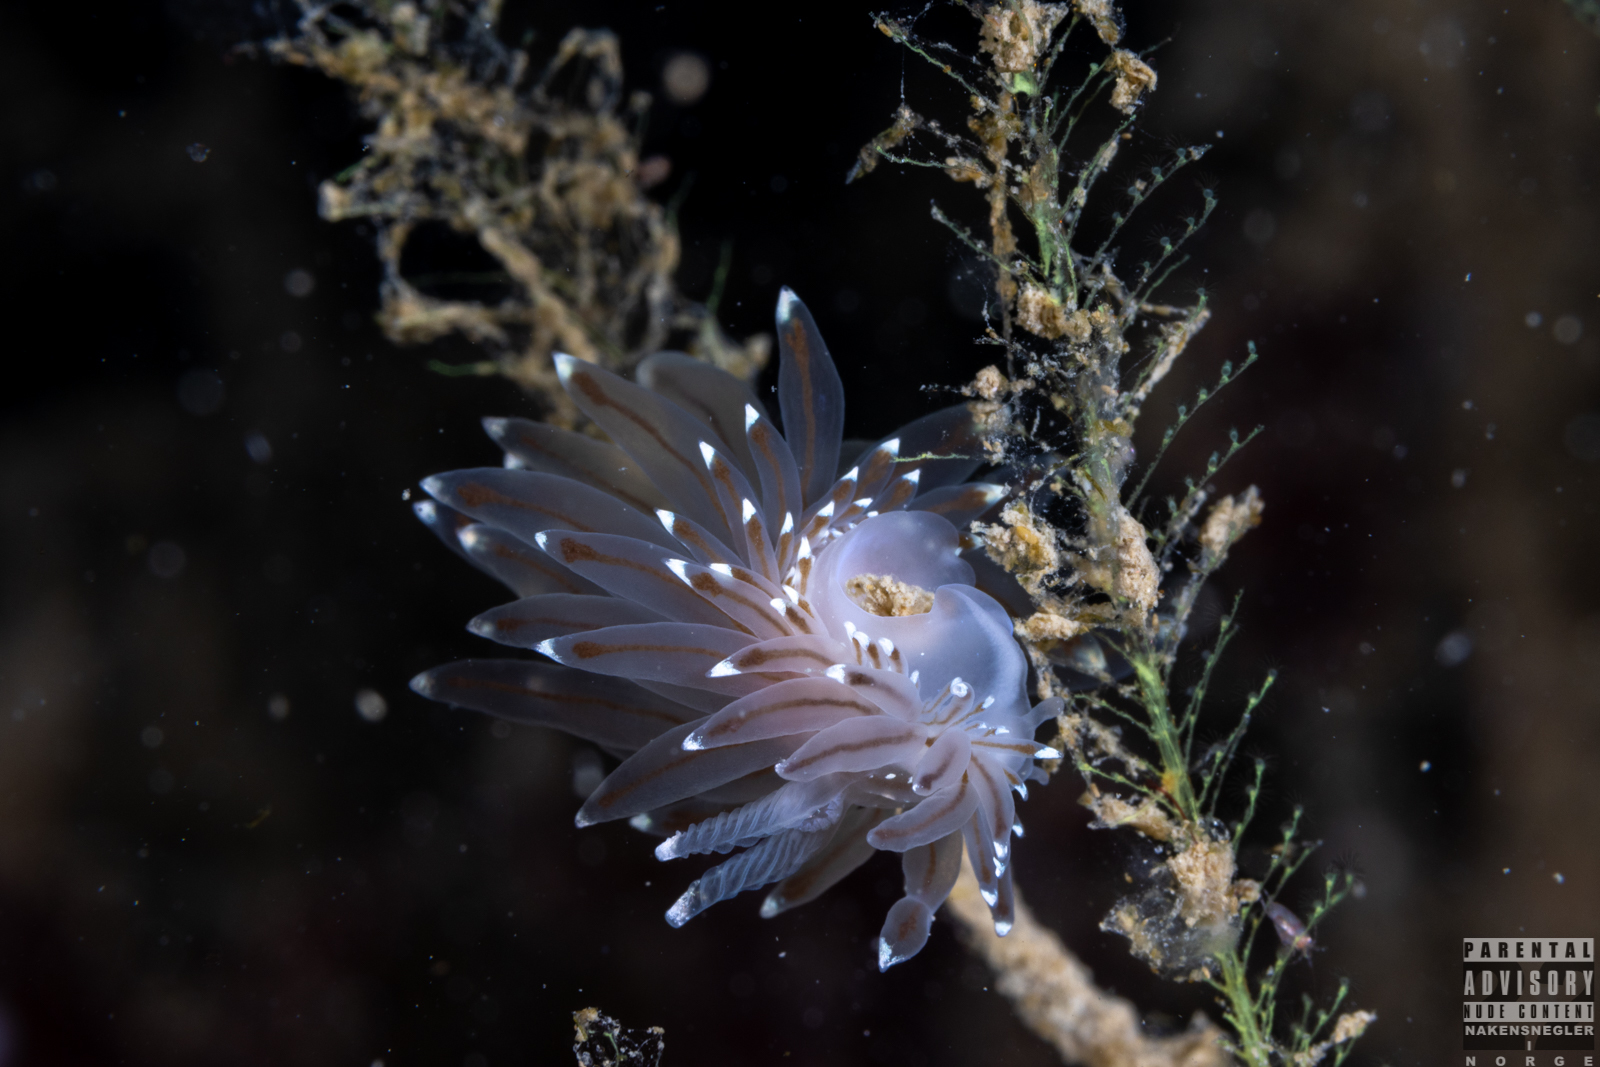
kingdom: Animalia
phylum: Mollusca
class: Gastropoda
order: Nudibranchia
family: Janolidae
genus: Antiopella
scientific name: Antiopella cristata
